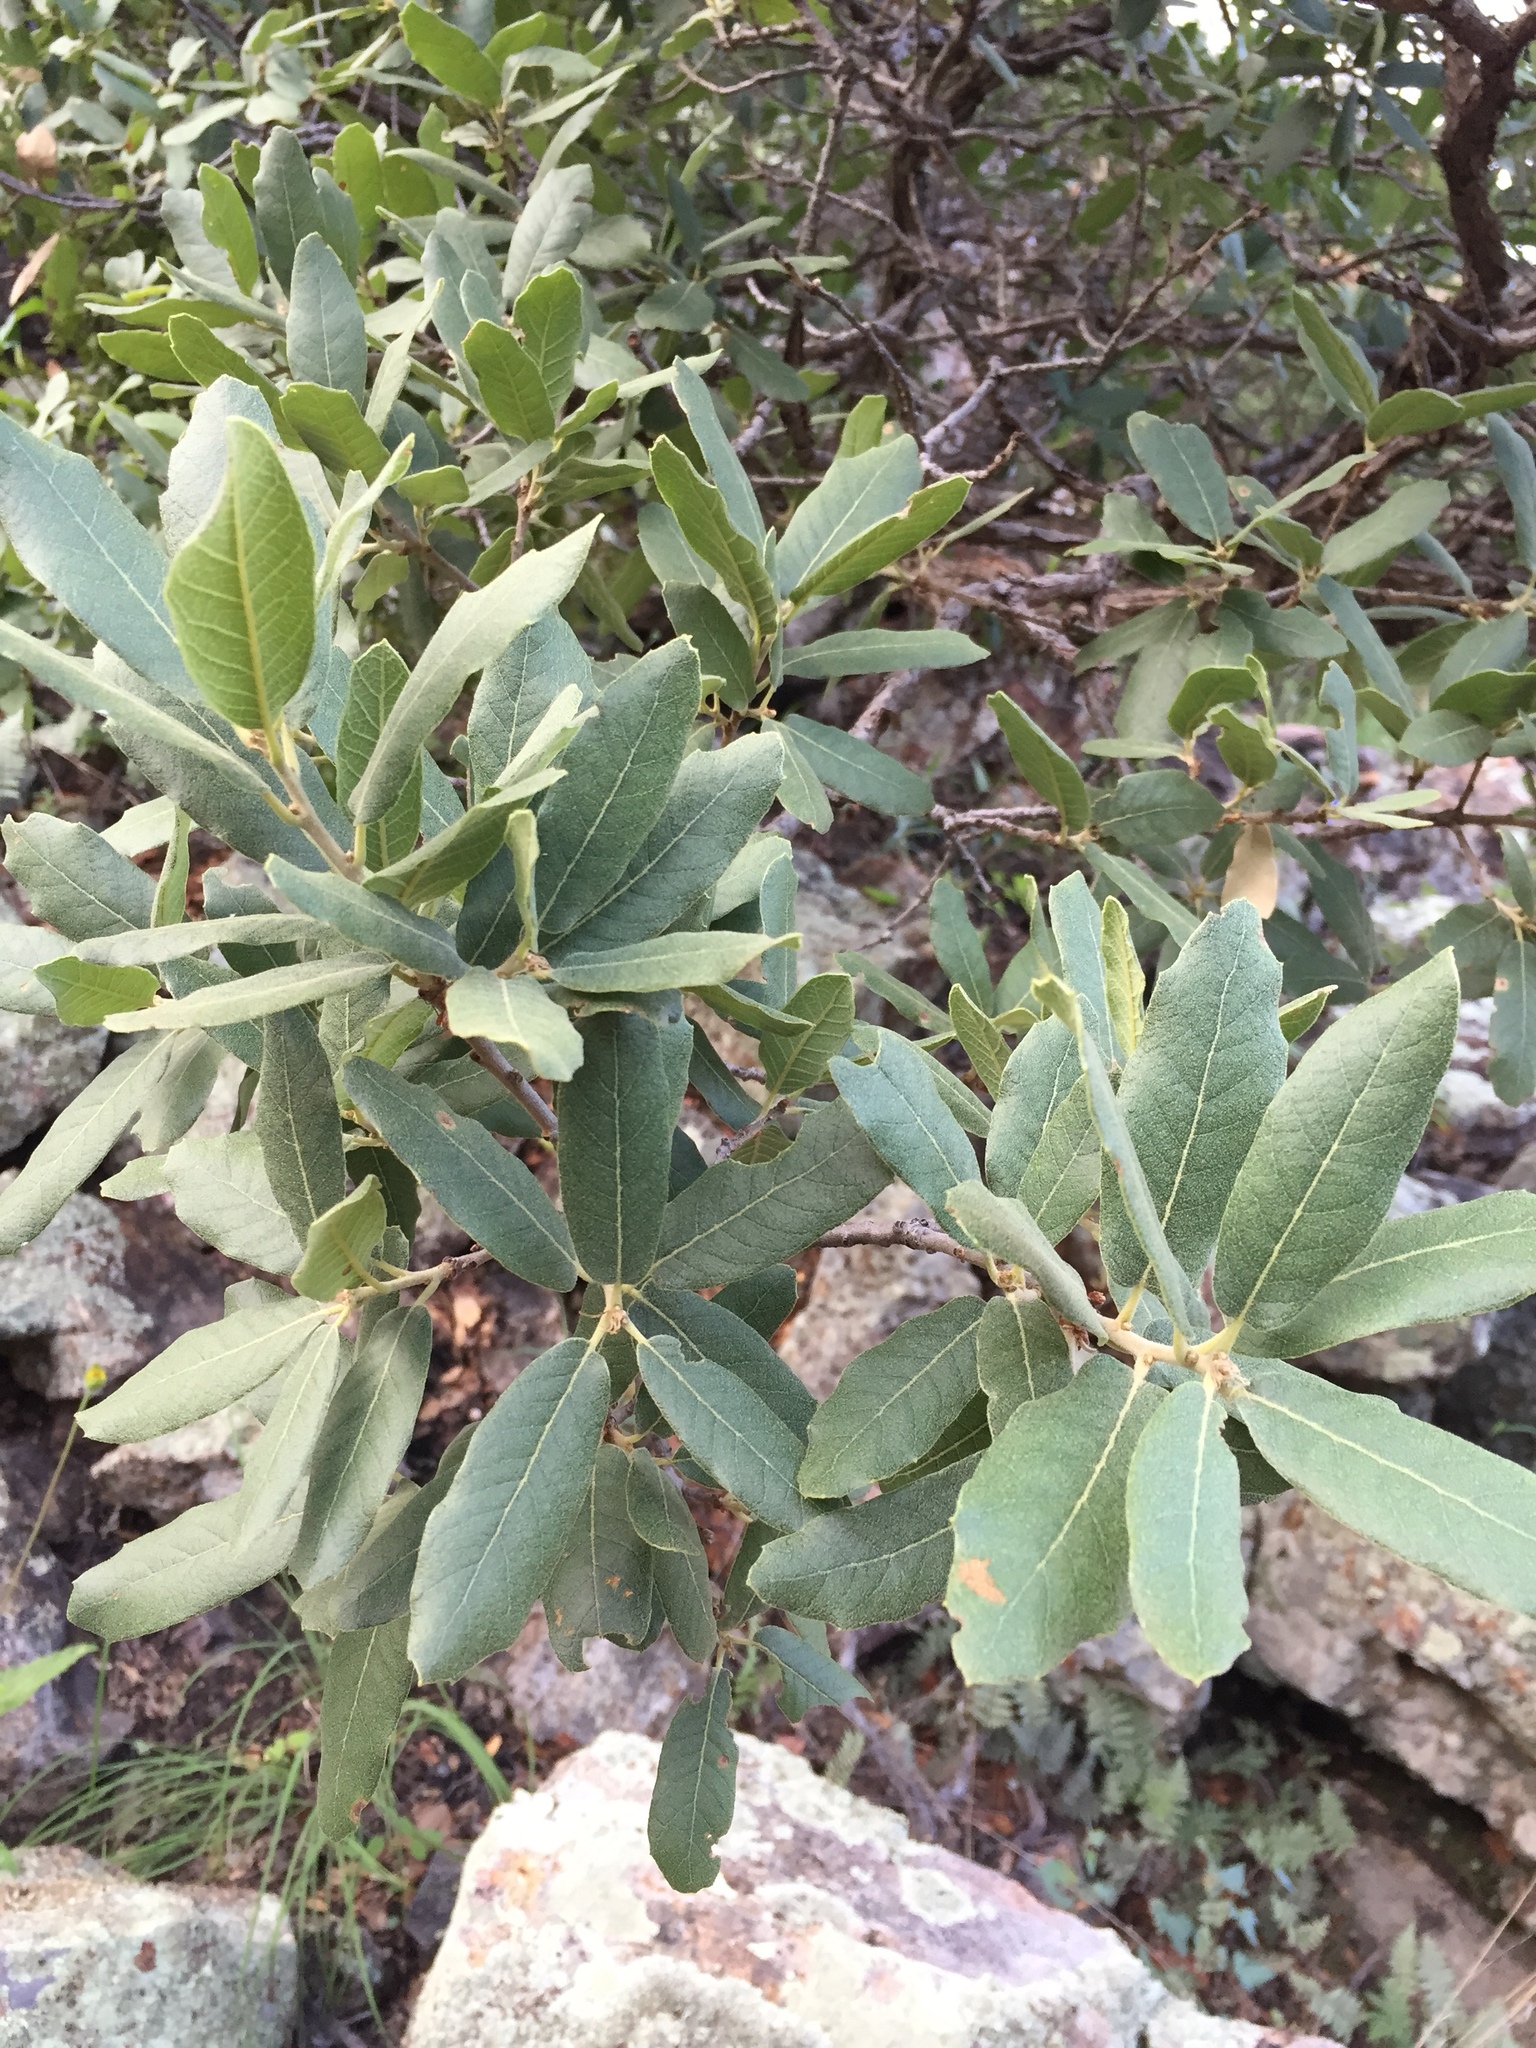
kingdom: Plantae
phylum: Tracheophyta
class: Magnoliopsida
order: Fagales
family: Fagaceae
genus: Quercus
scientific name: Quercus emoryi
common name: Emory oak
